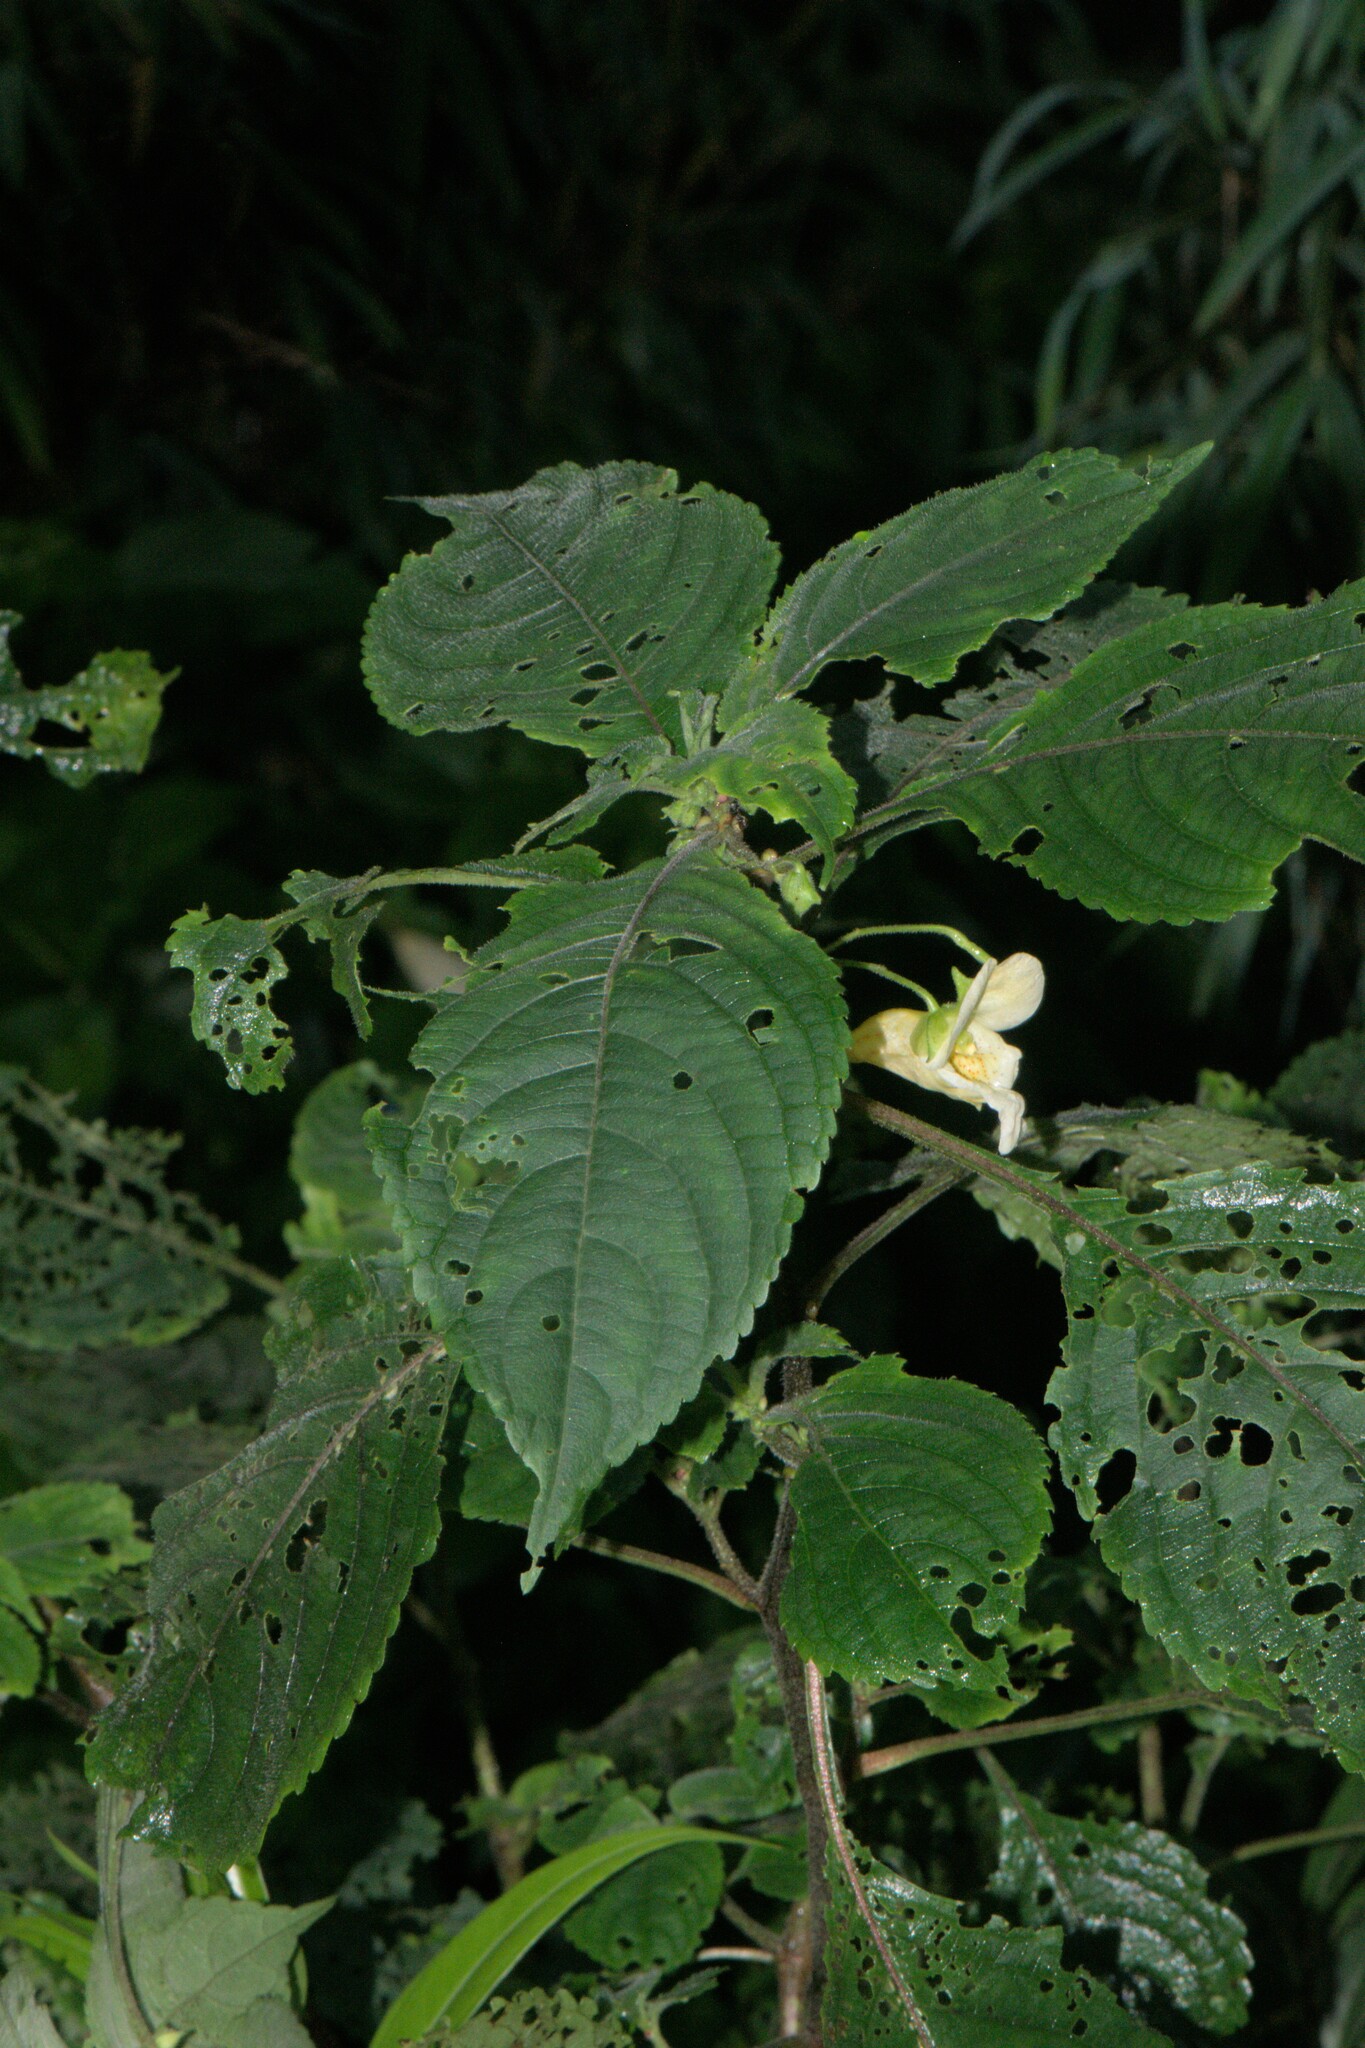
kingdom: Plantae
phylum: Tracheophyta
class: Magnoliopsida
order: Ericales
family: Balsaminaceae
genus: Impatiens
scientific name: Impatiens tricornis
